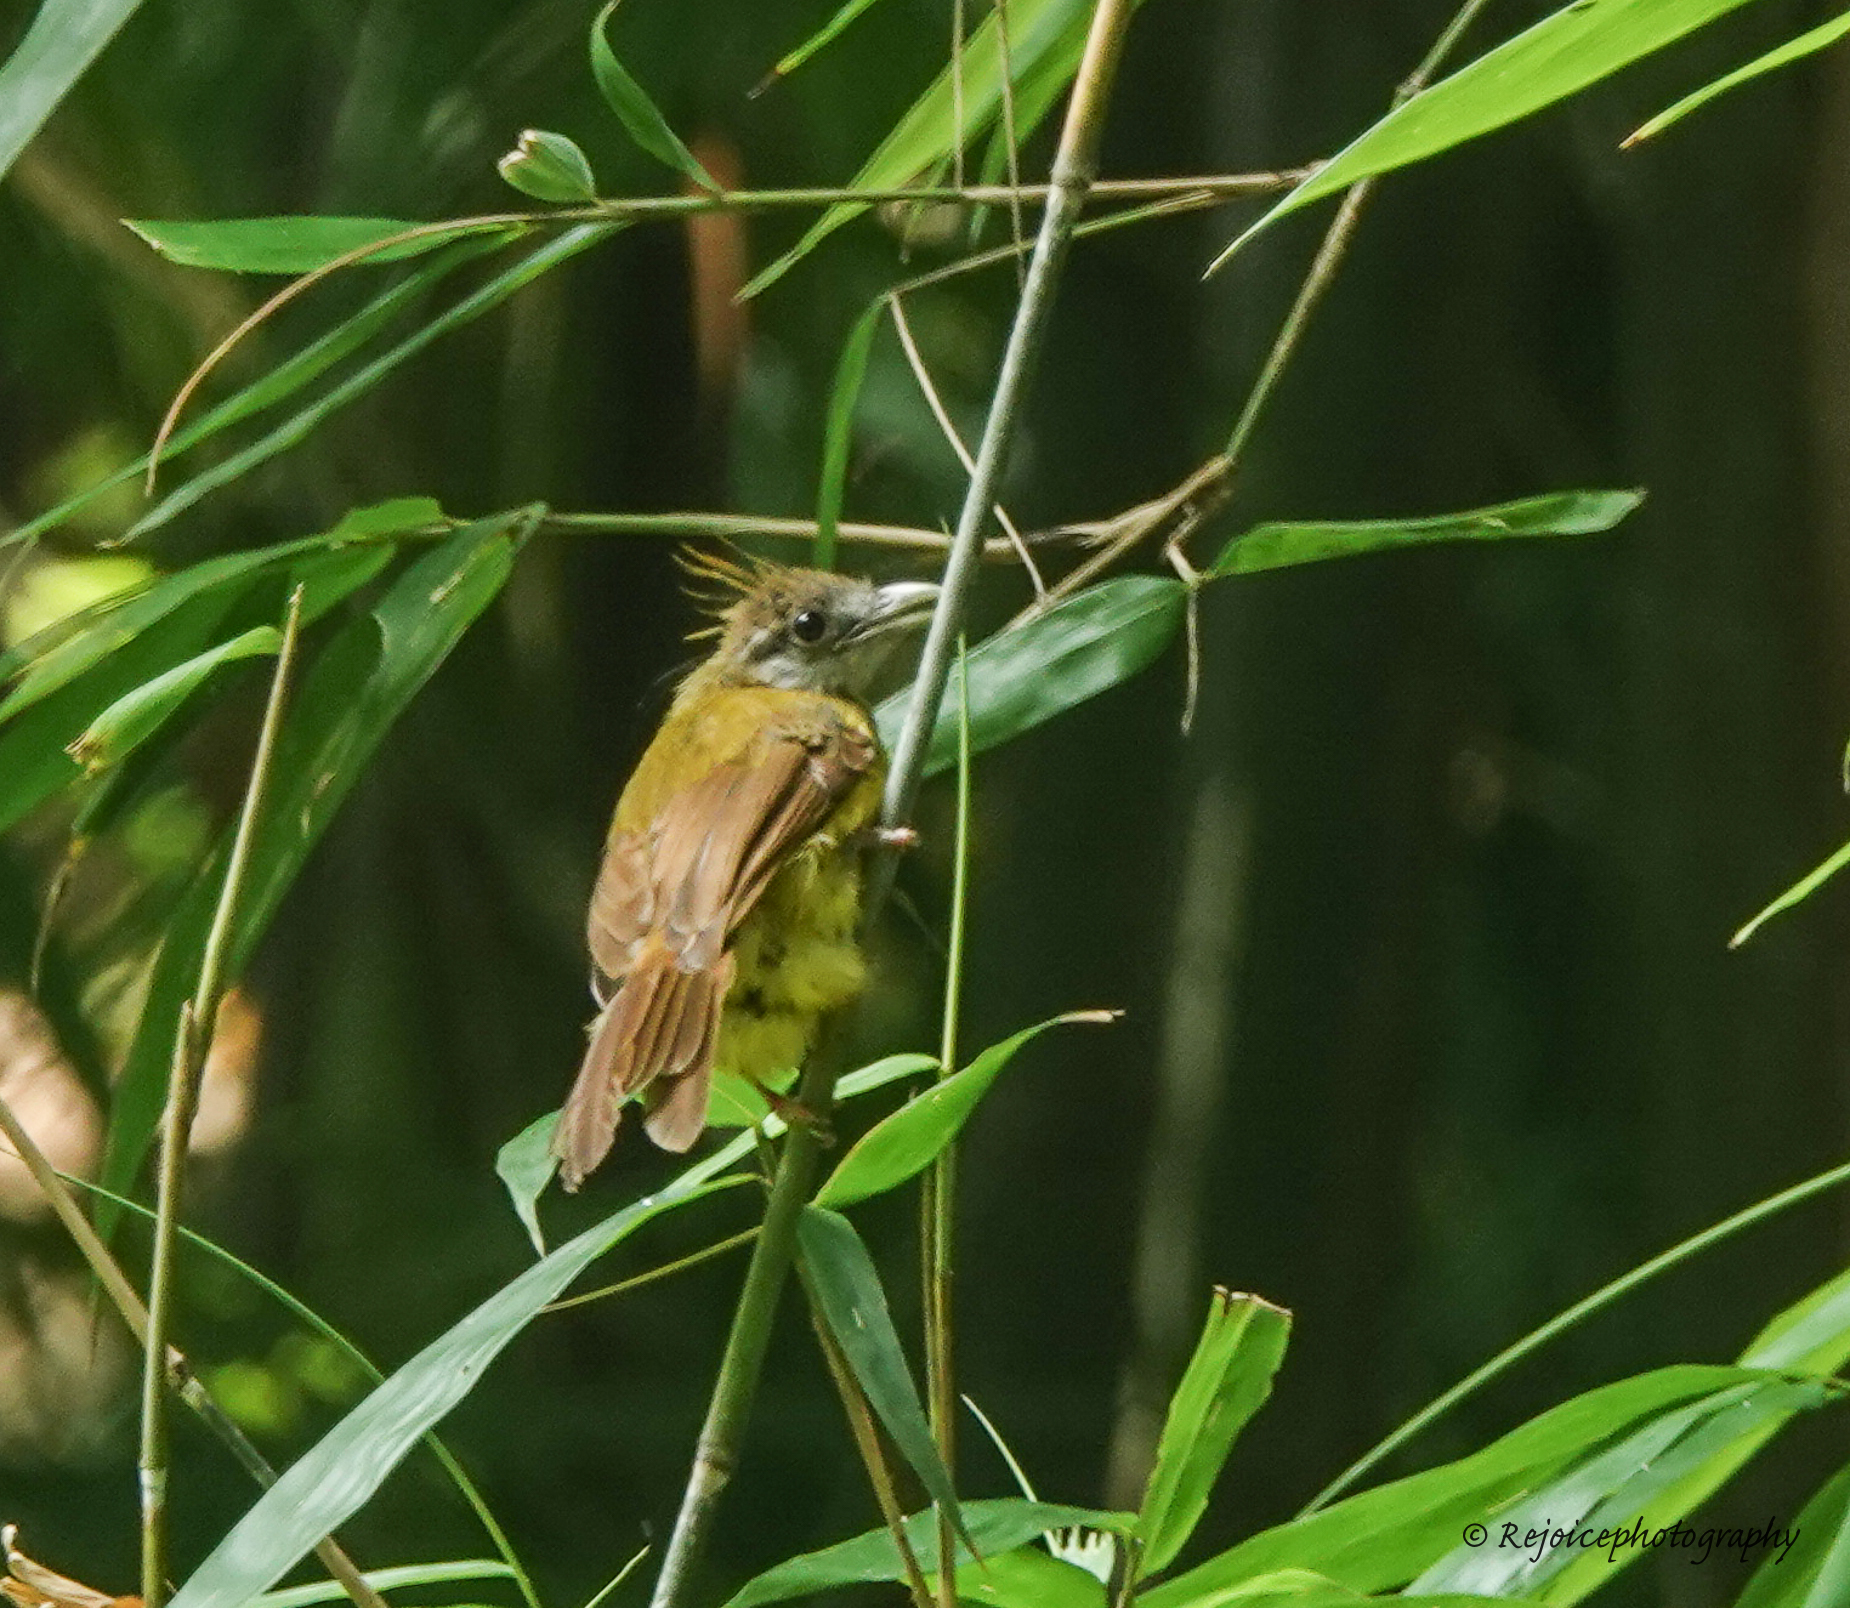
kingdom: Animalia
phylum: Chordata
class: Aves
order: Passeriformes
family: Pycnonotidae
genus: Alophoixus
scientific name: Alophoixus flaveolus
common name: White-throated bulbul
